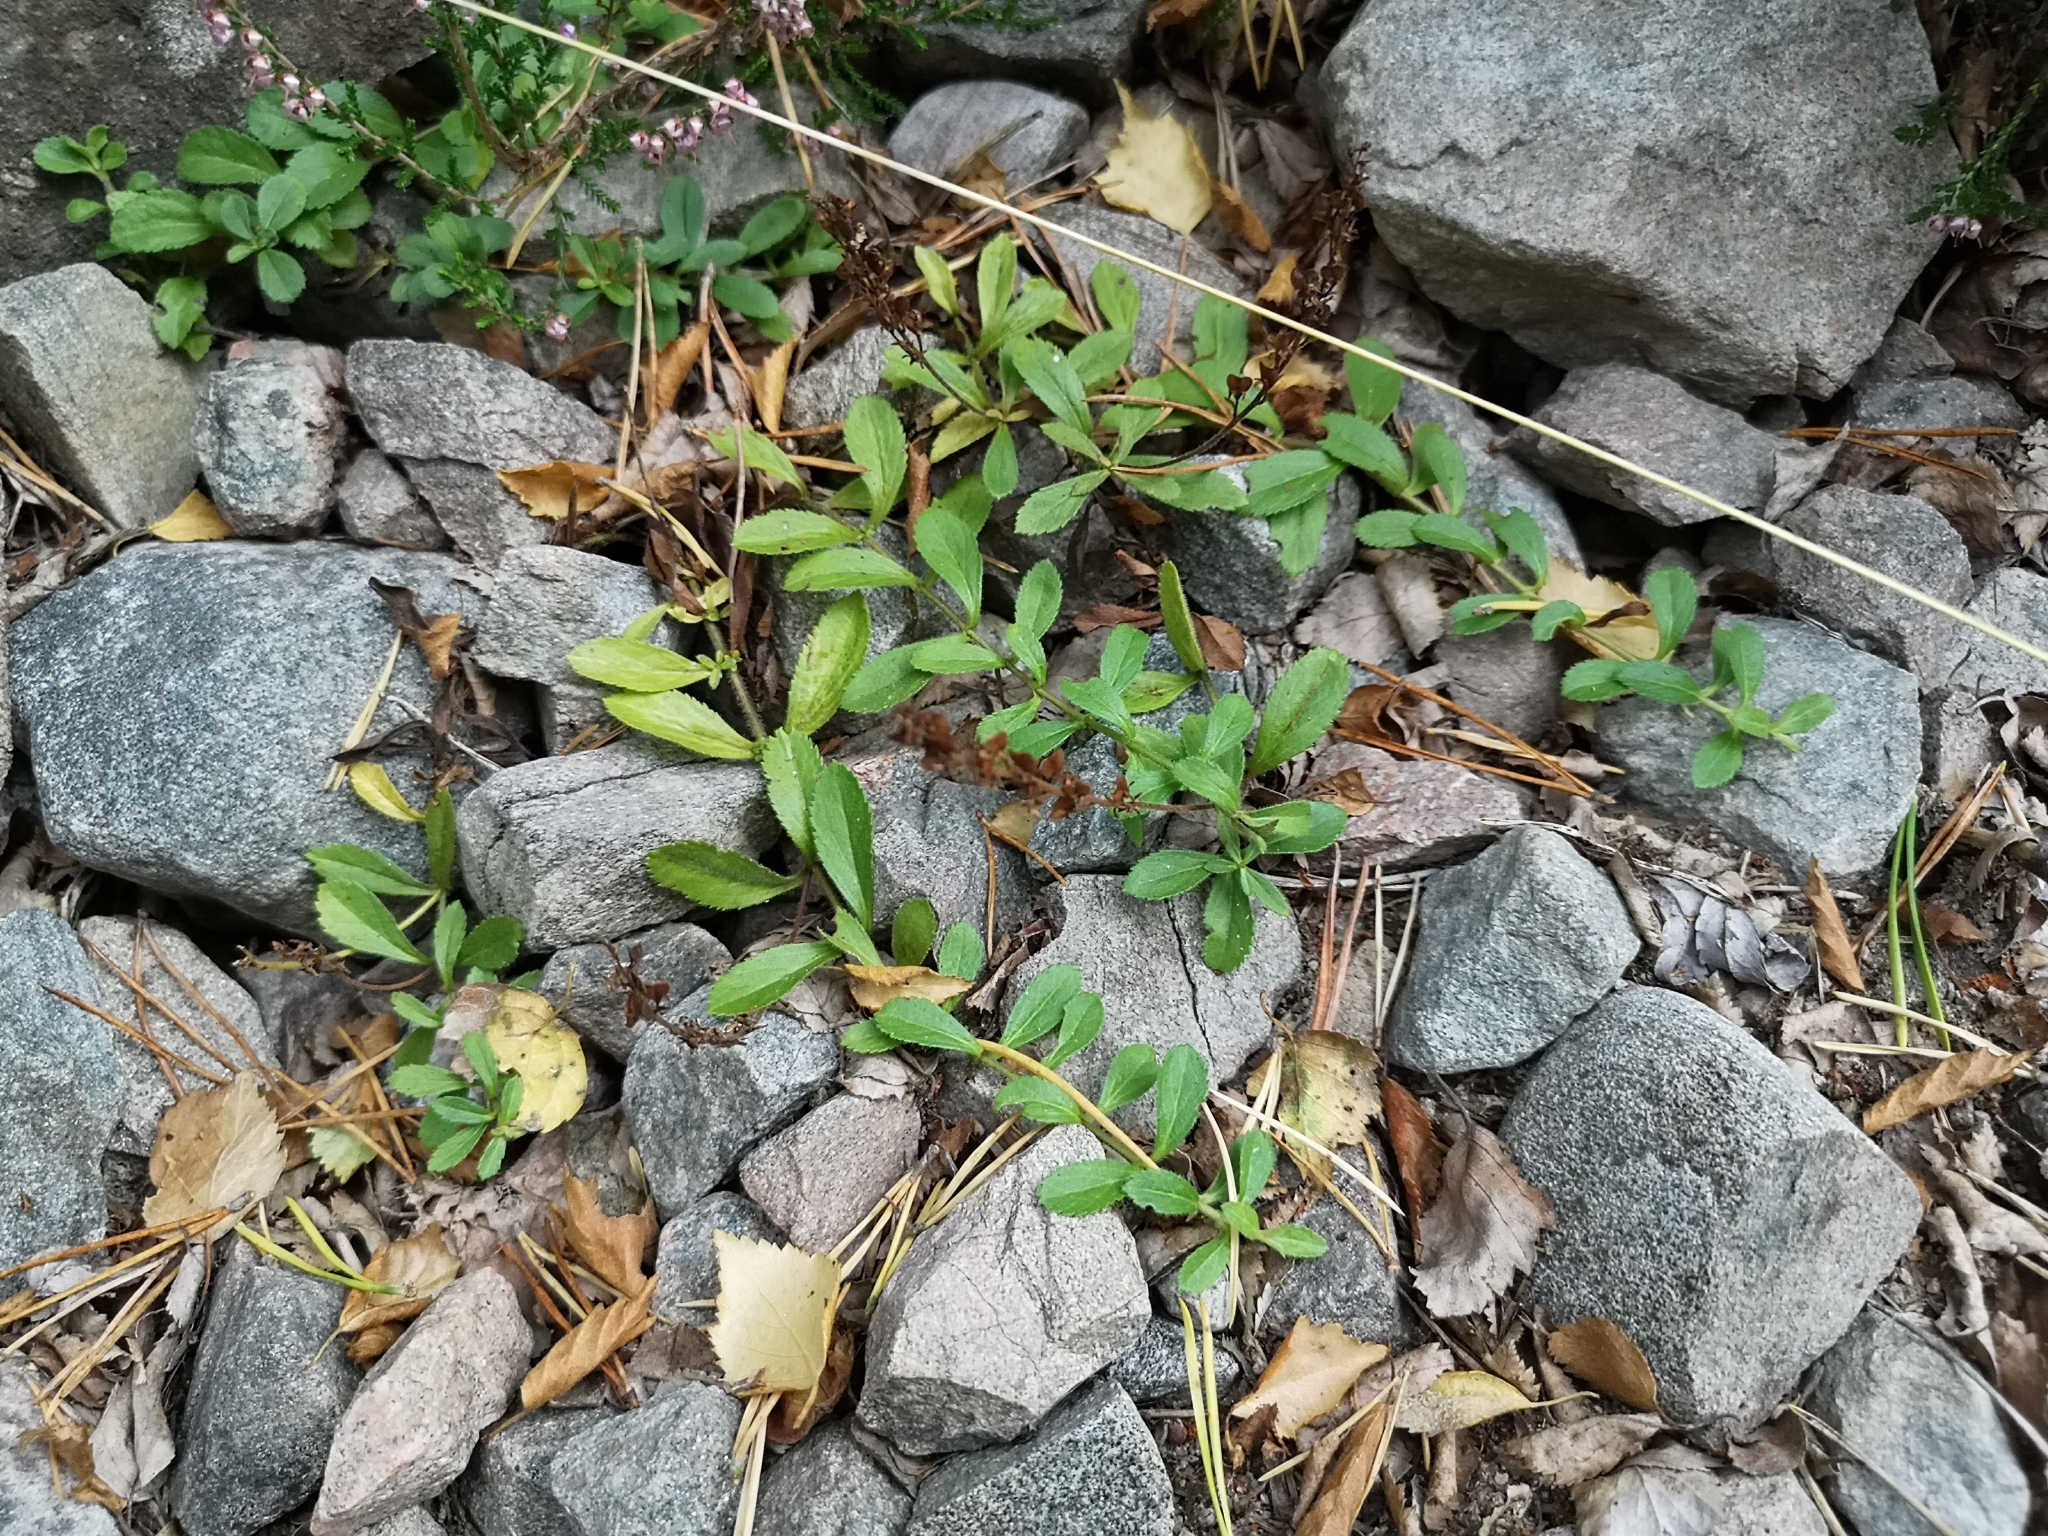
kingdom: Plantae
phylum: Tracheophyta
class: Magnoliopsida
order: Lamiales
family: Plantaginaceae
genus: Veronica
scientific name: Veronica officinalis
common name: Common speedwell
